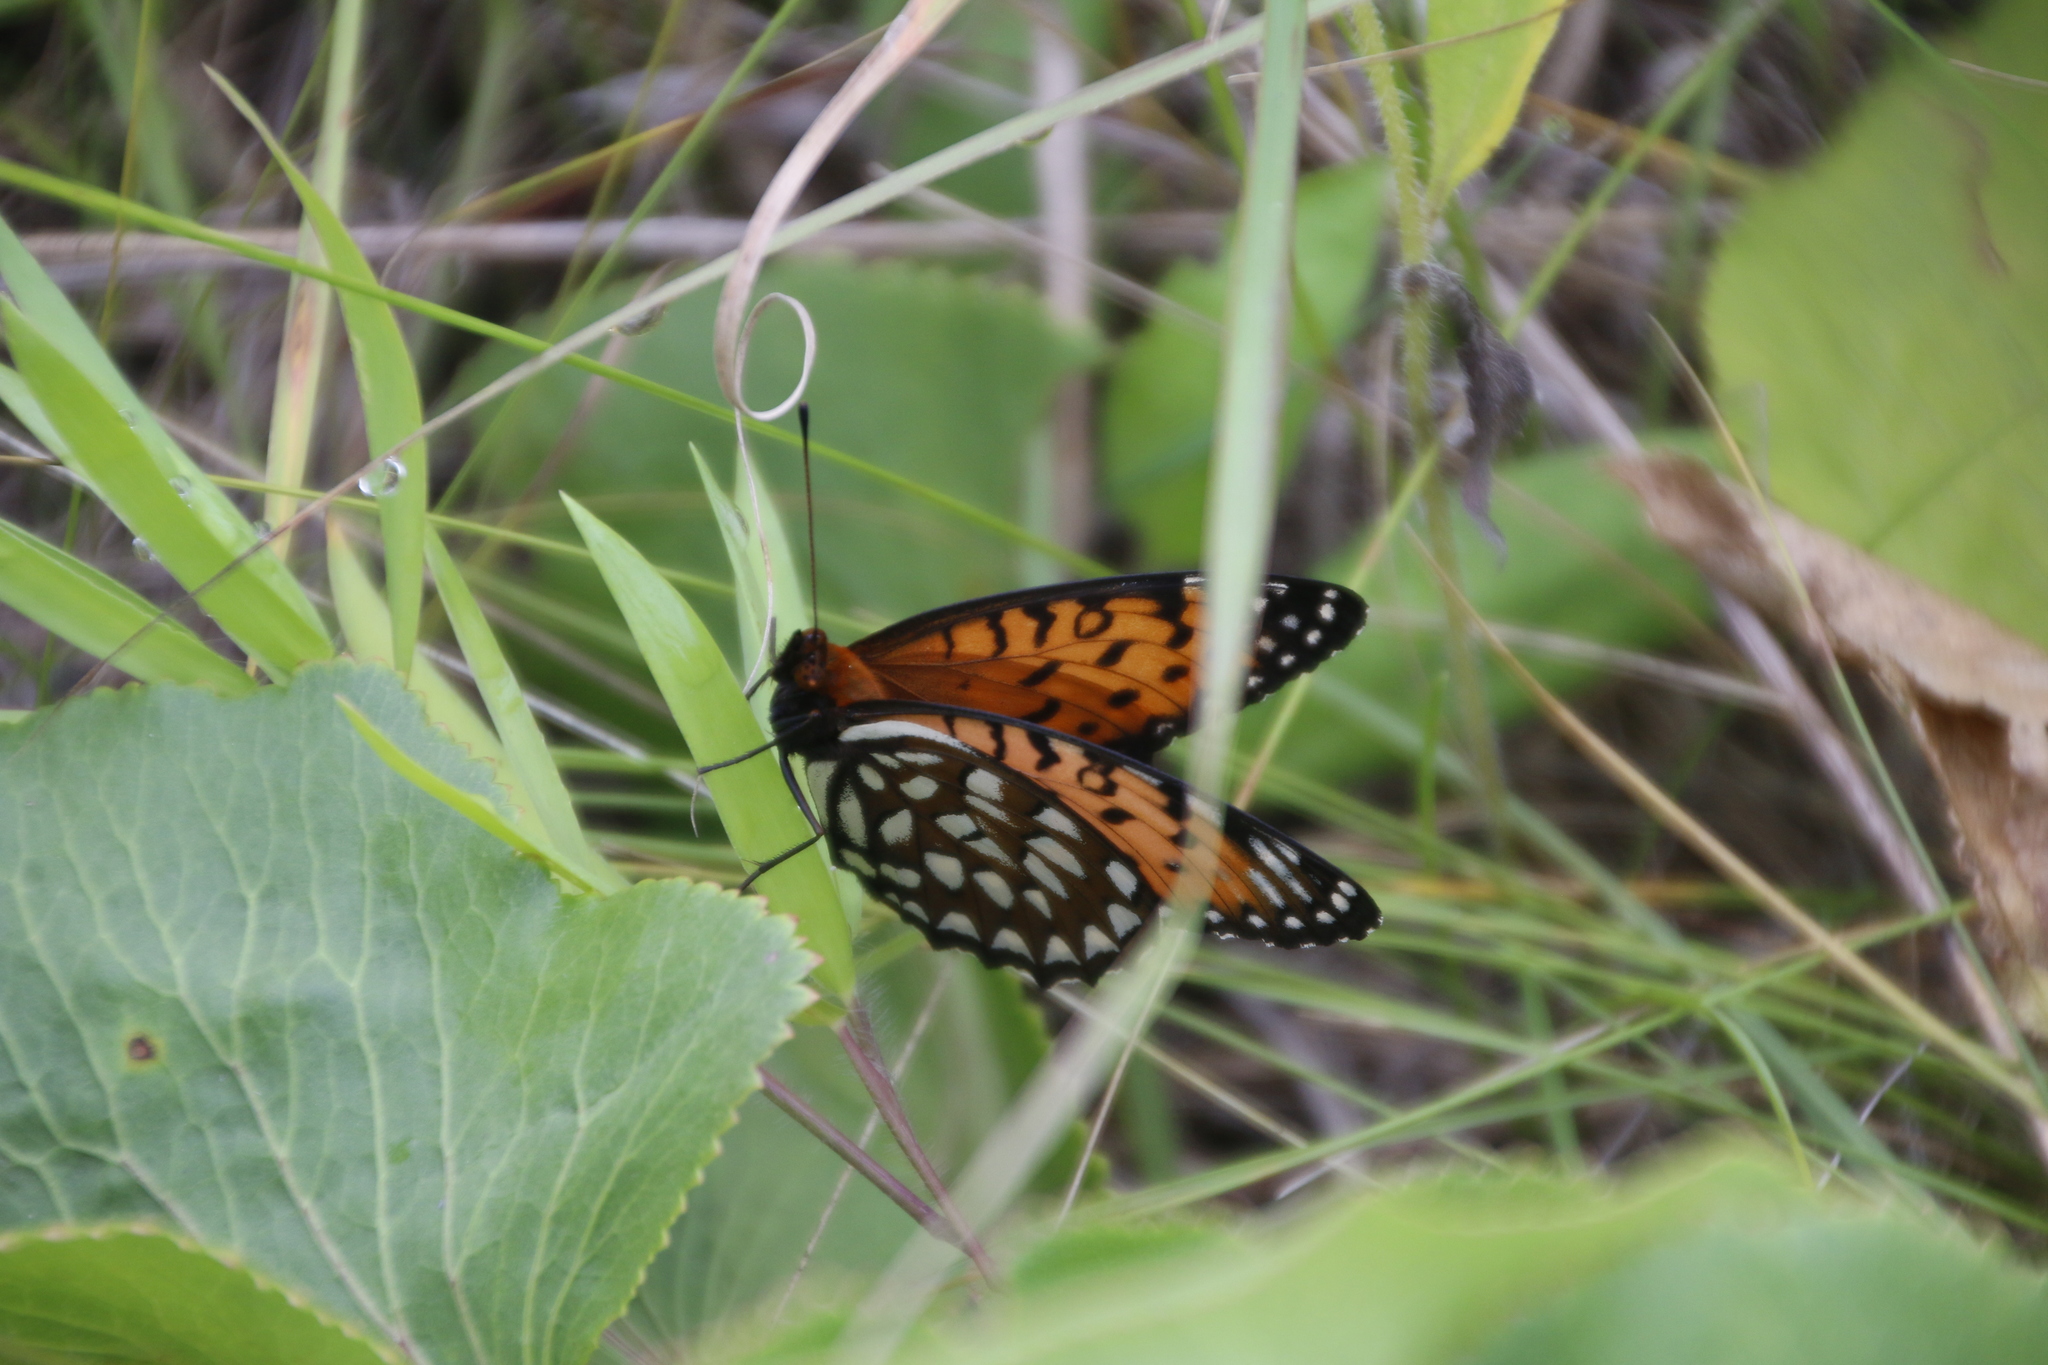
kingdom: Animalia
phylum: Arthropoda
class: Insecta
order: Lepidoptera
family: Nymphalidae
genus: Speyeria
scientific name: Speyeria idalia
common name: Regal fritillary
